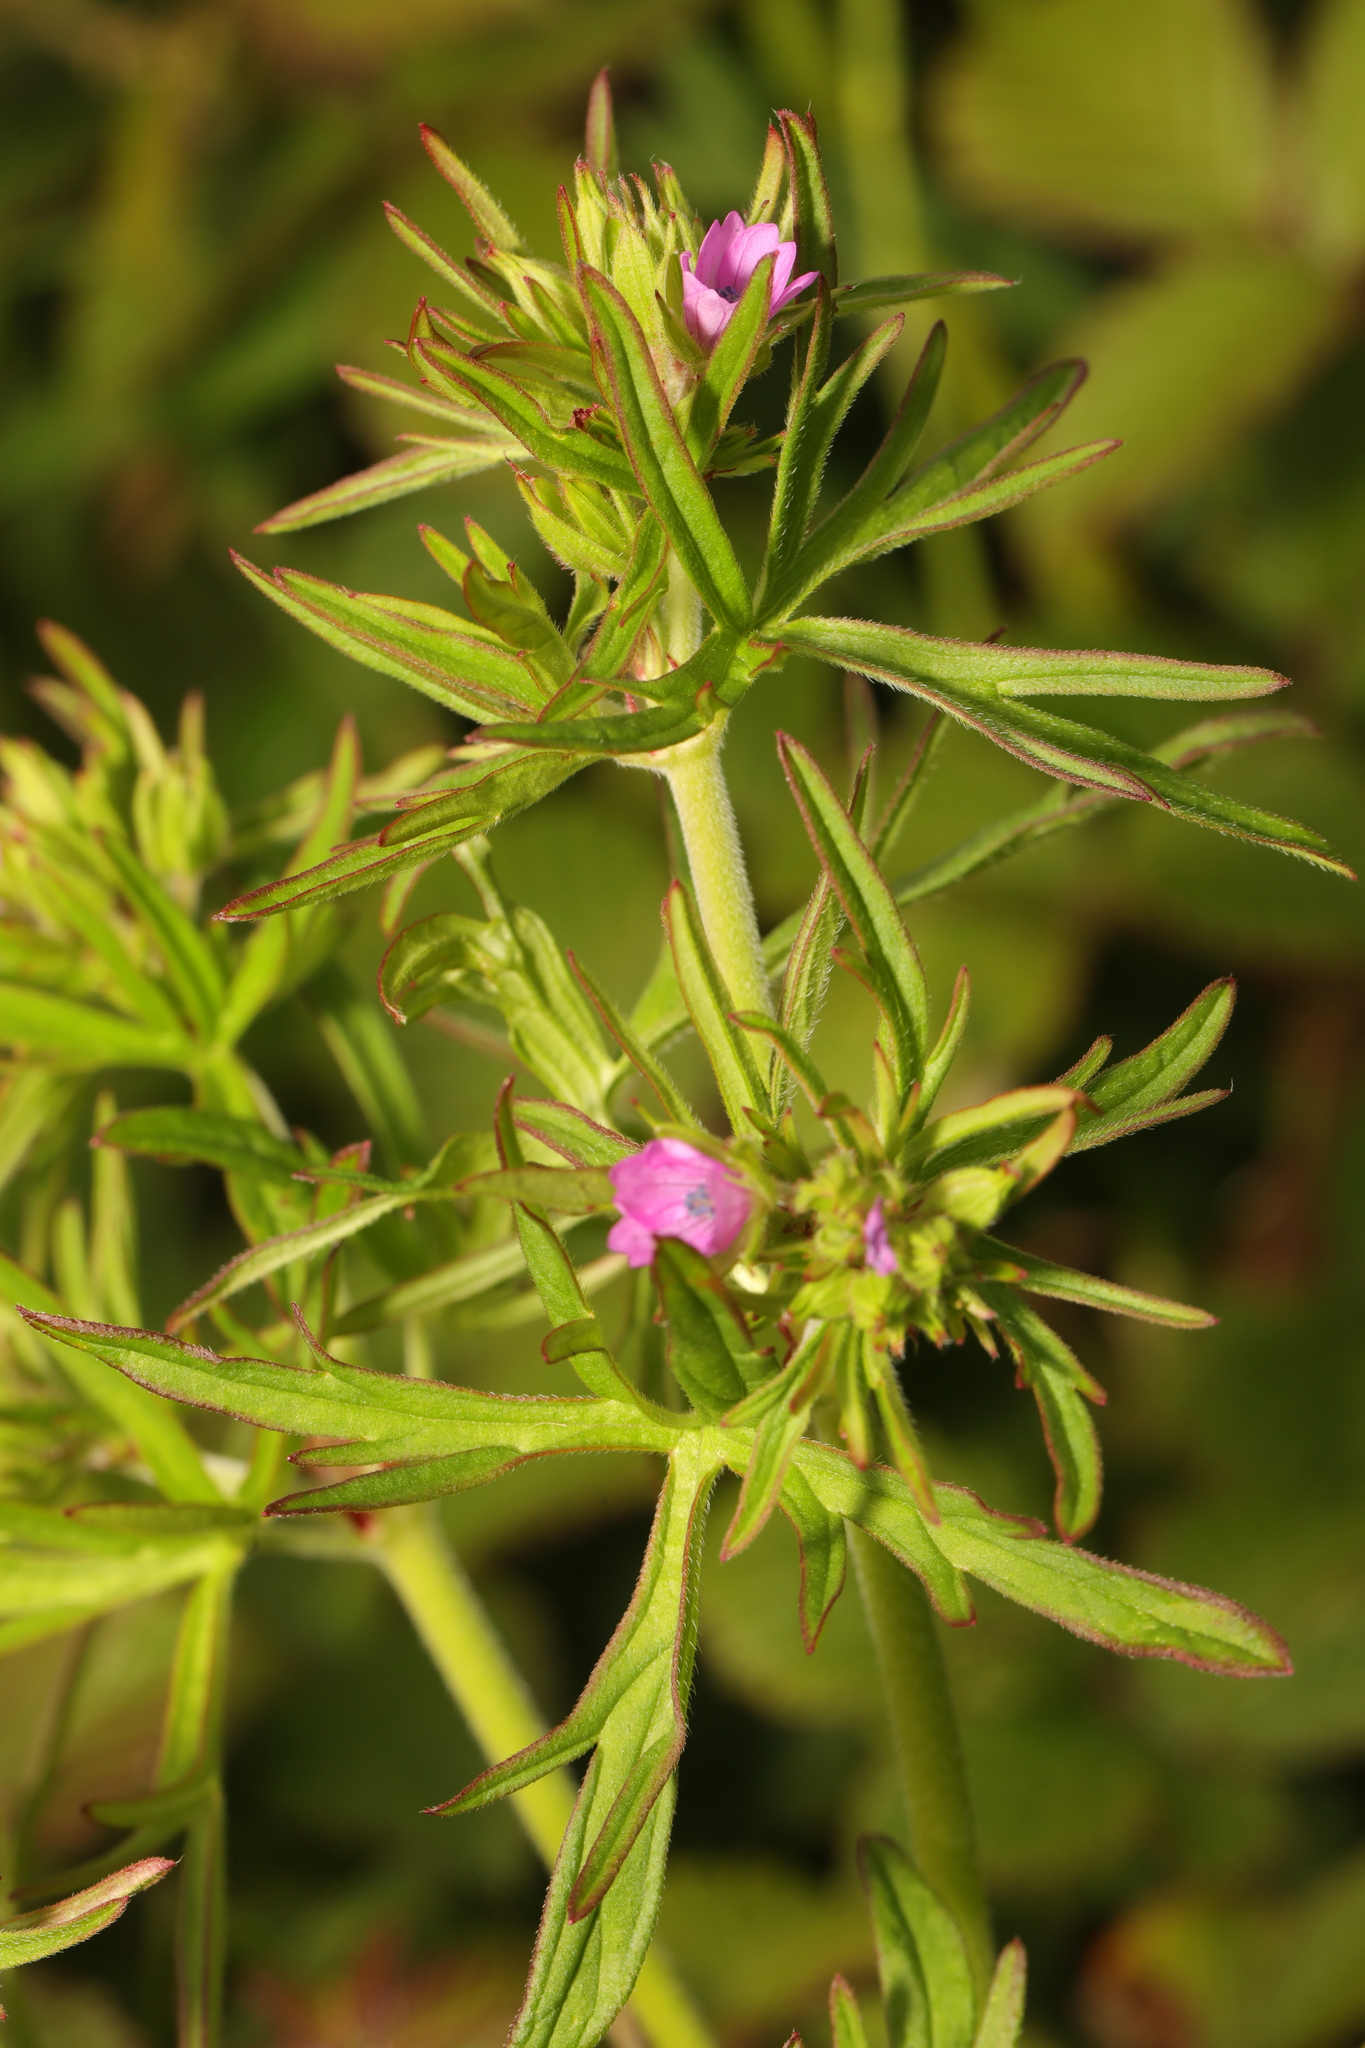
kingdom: Plantae
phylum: Tracheophyta
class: Magnoliopsida
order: Geraniales
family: Geraniaceae
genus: Geranium
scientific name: Geranium dissectum
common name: Cut-leaved crane's-bill
